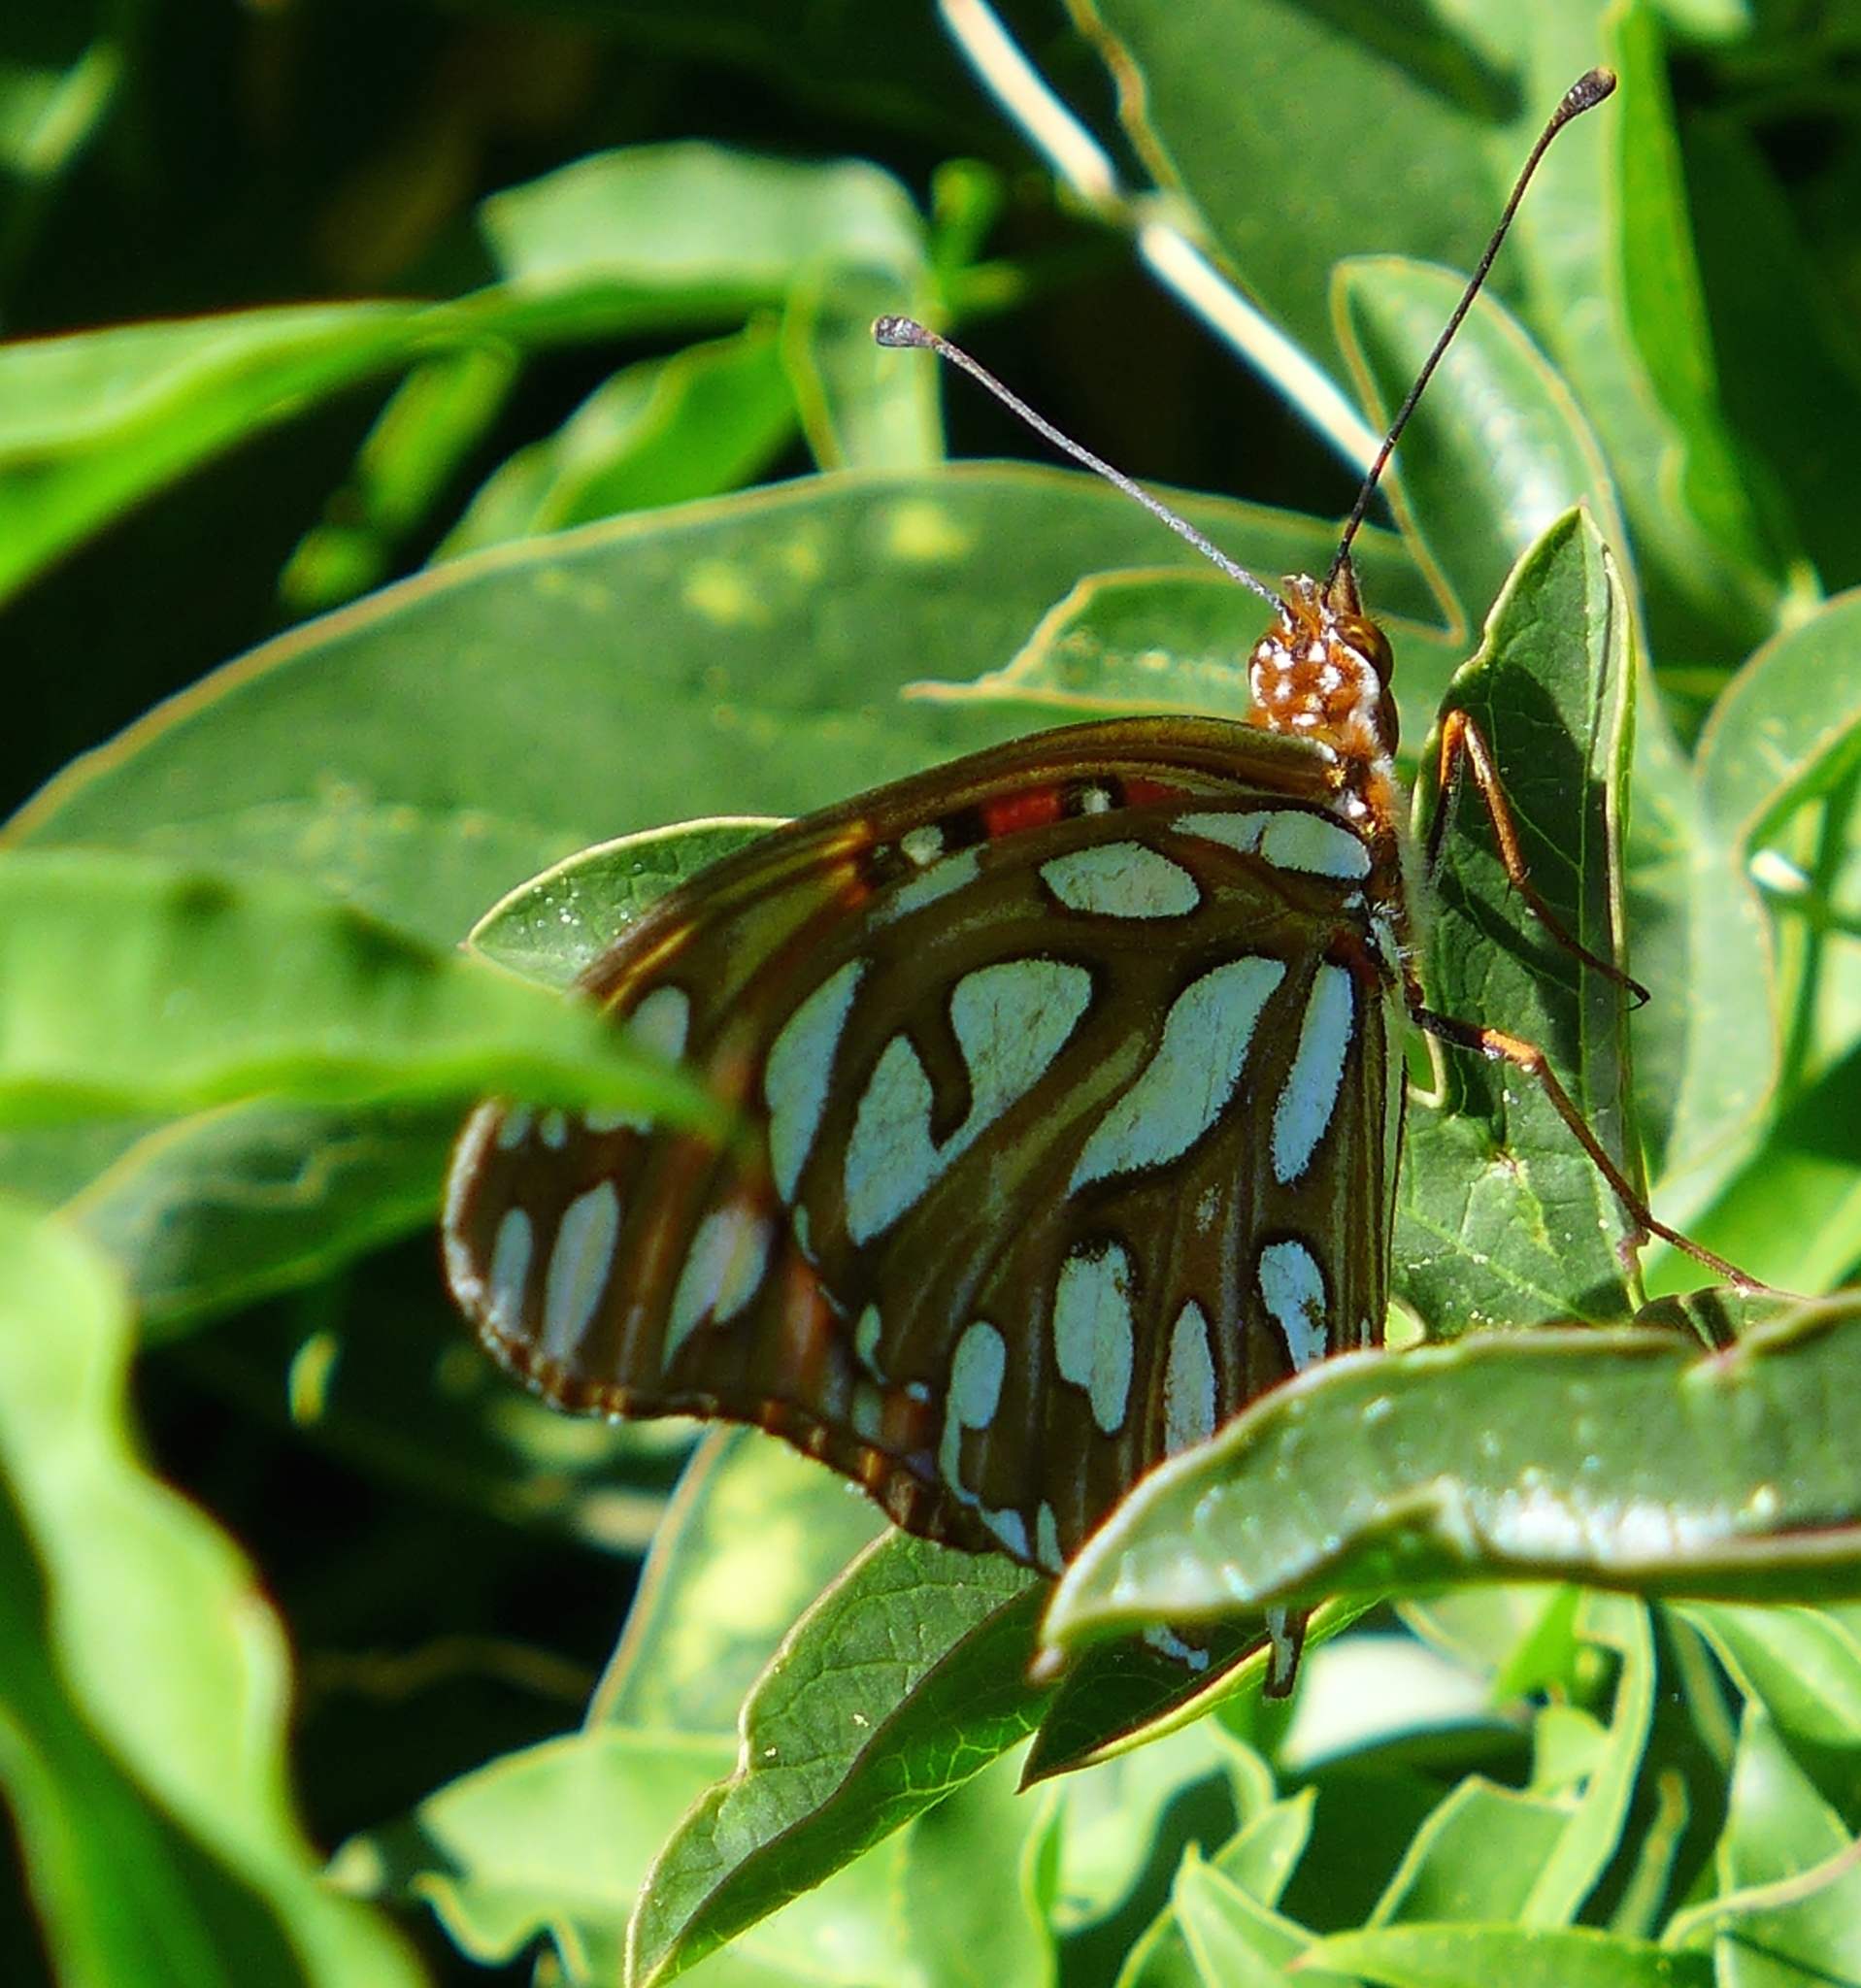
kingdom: Animalia
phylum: Arthropoda
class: Insecta
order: Lepidoptera
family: Nymphalidae
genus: Dione
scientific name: Dione vanillae
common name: Gulf fritillary
